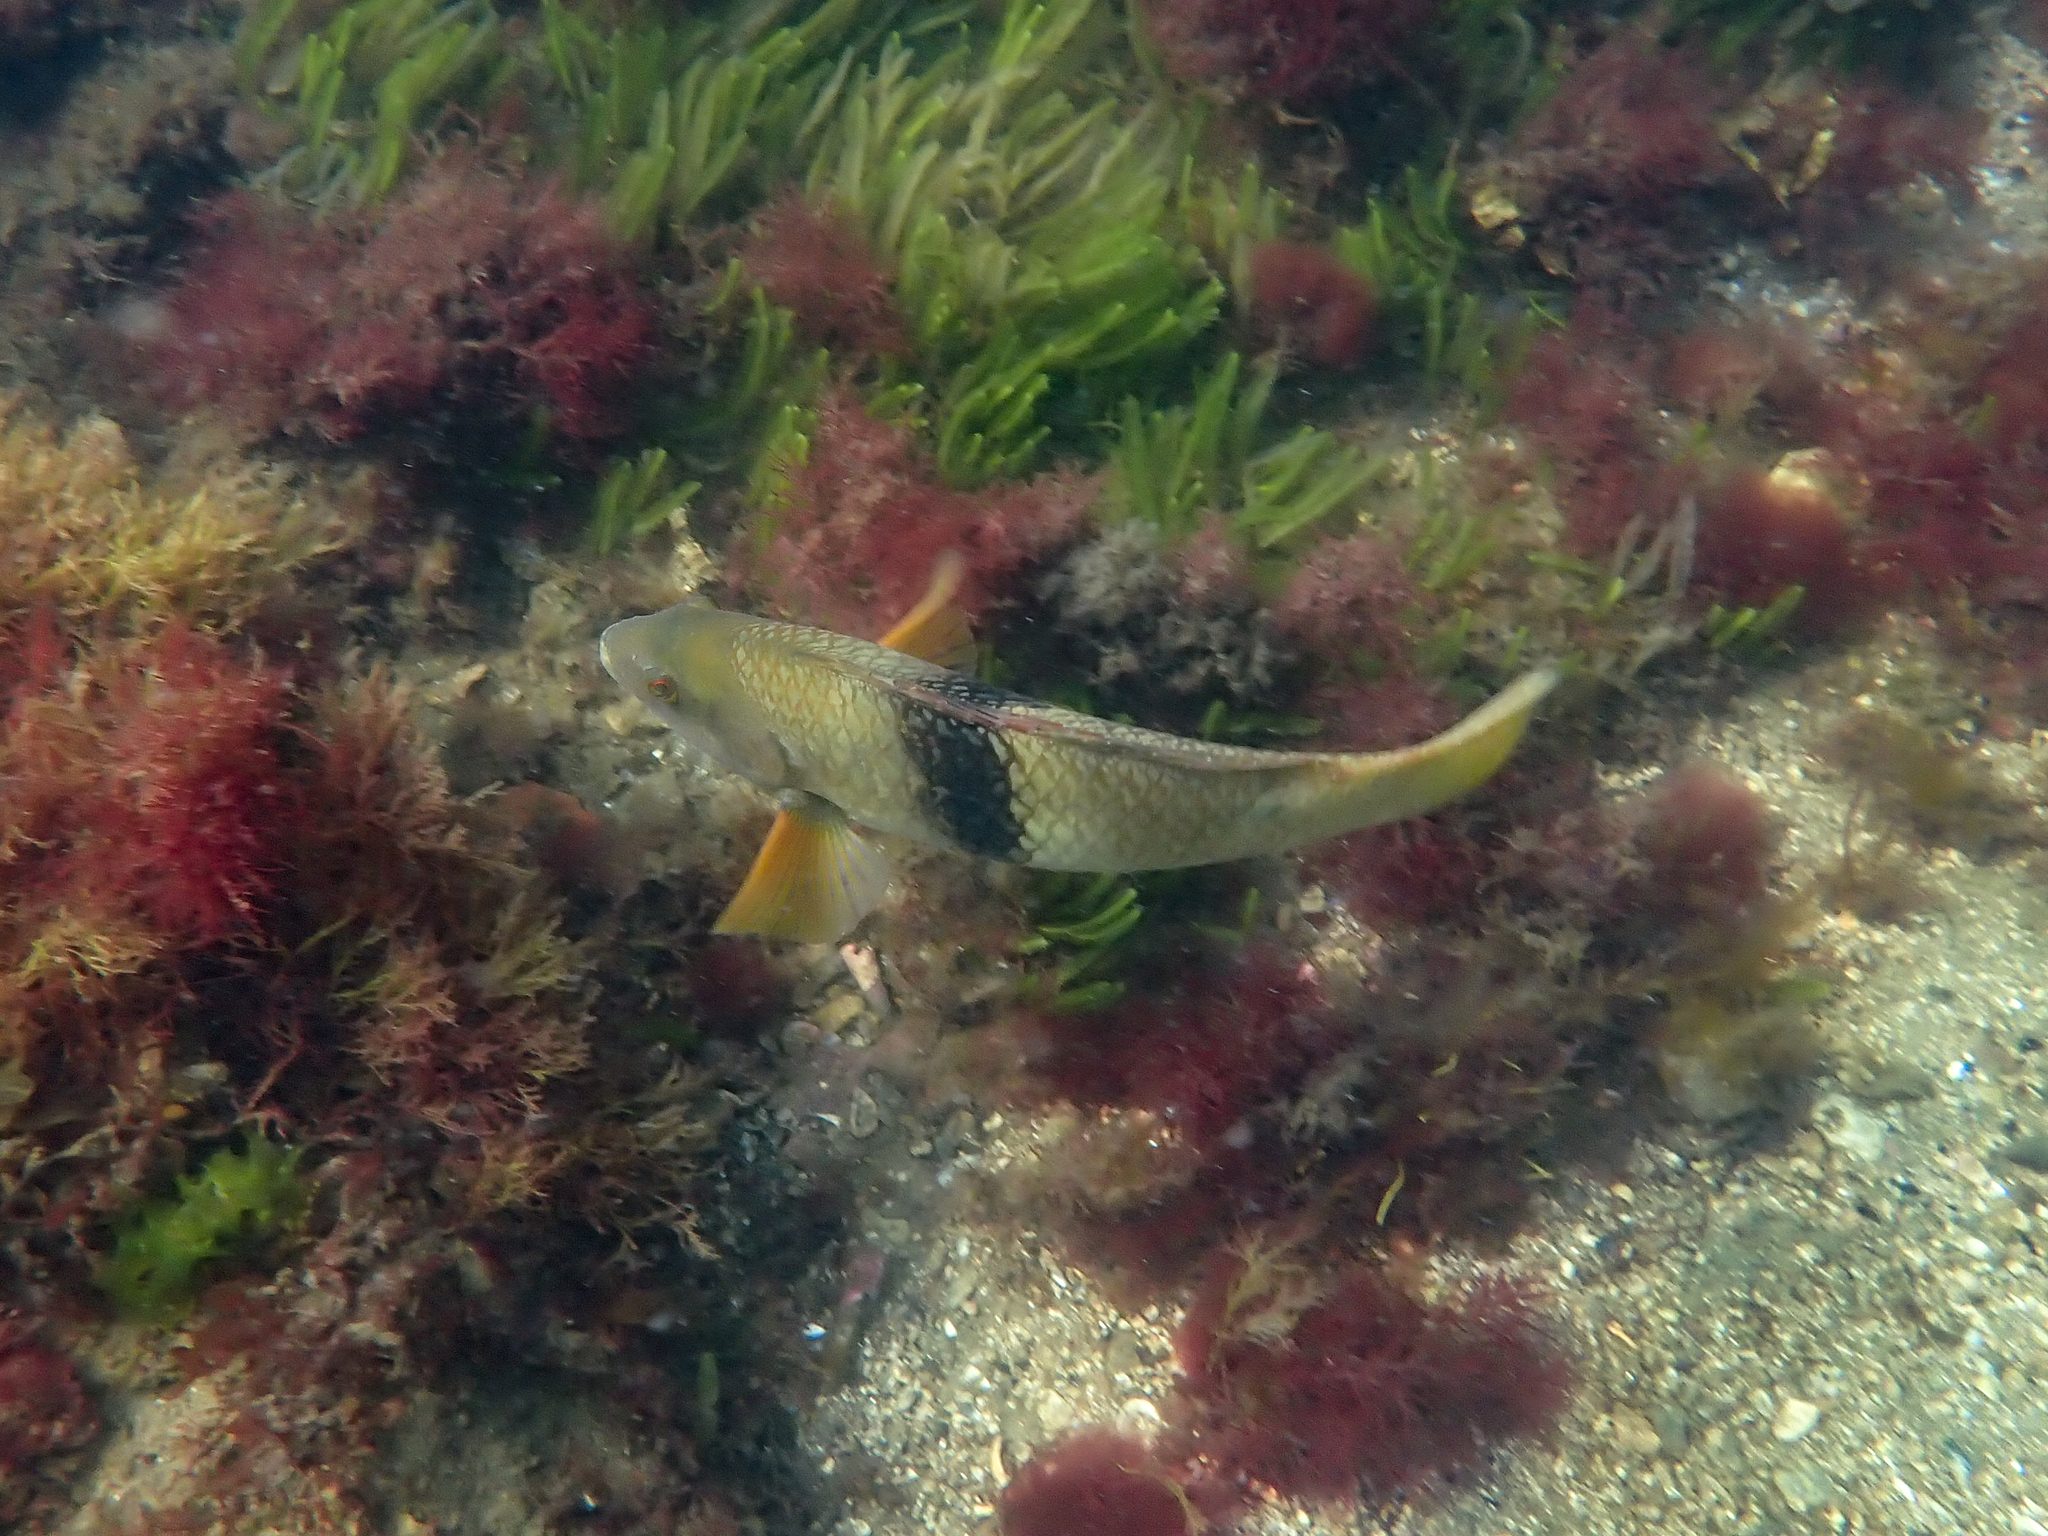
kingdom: Animalia
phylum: Chordata
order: Perciformes
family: Labridae
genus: Notolabrus
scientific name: Notolabrus tetricus
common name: Blue-throated parrotfish
